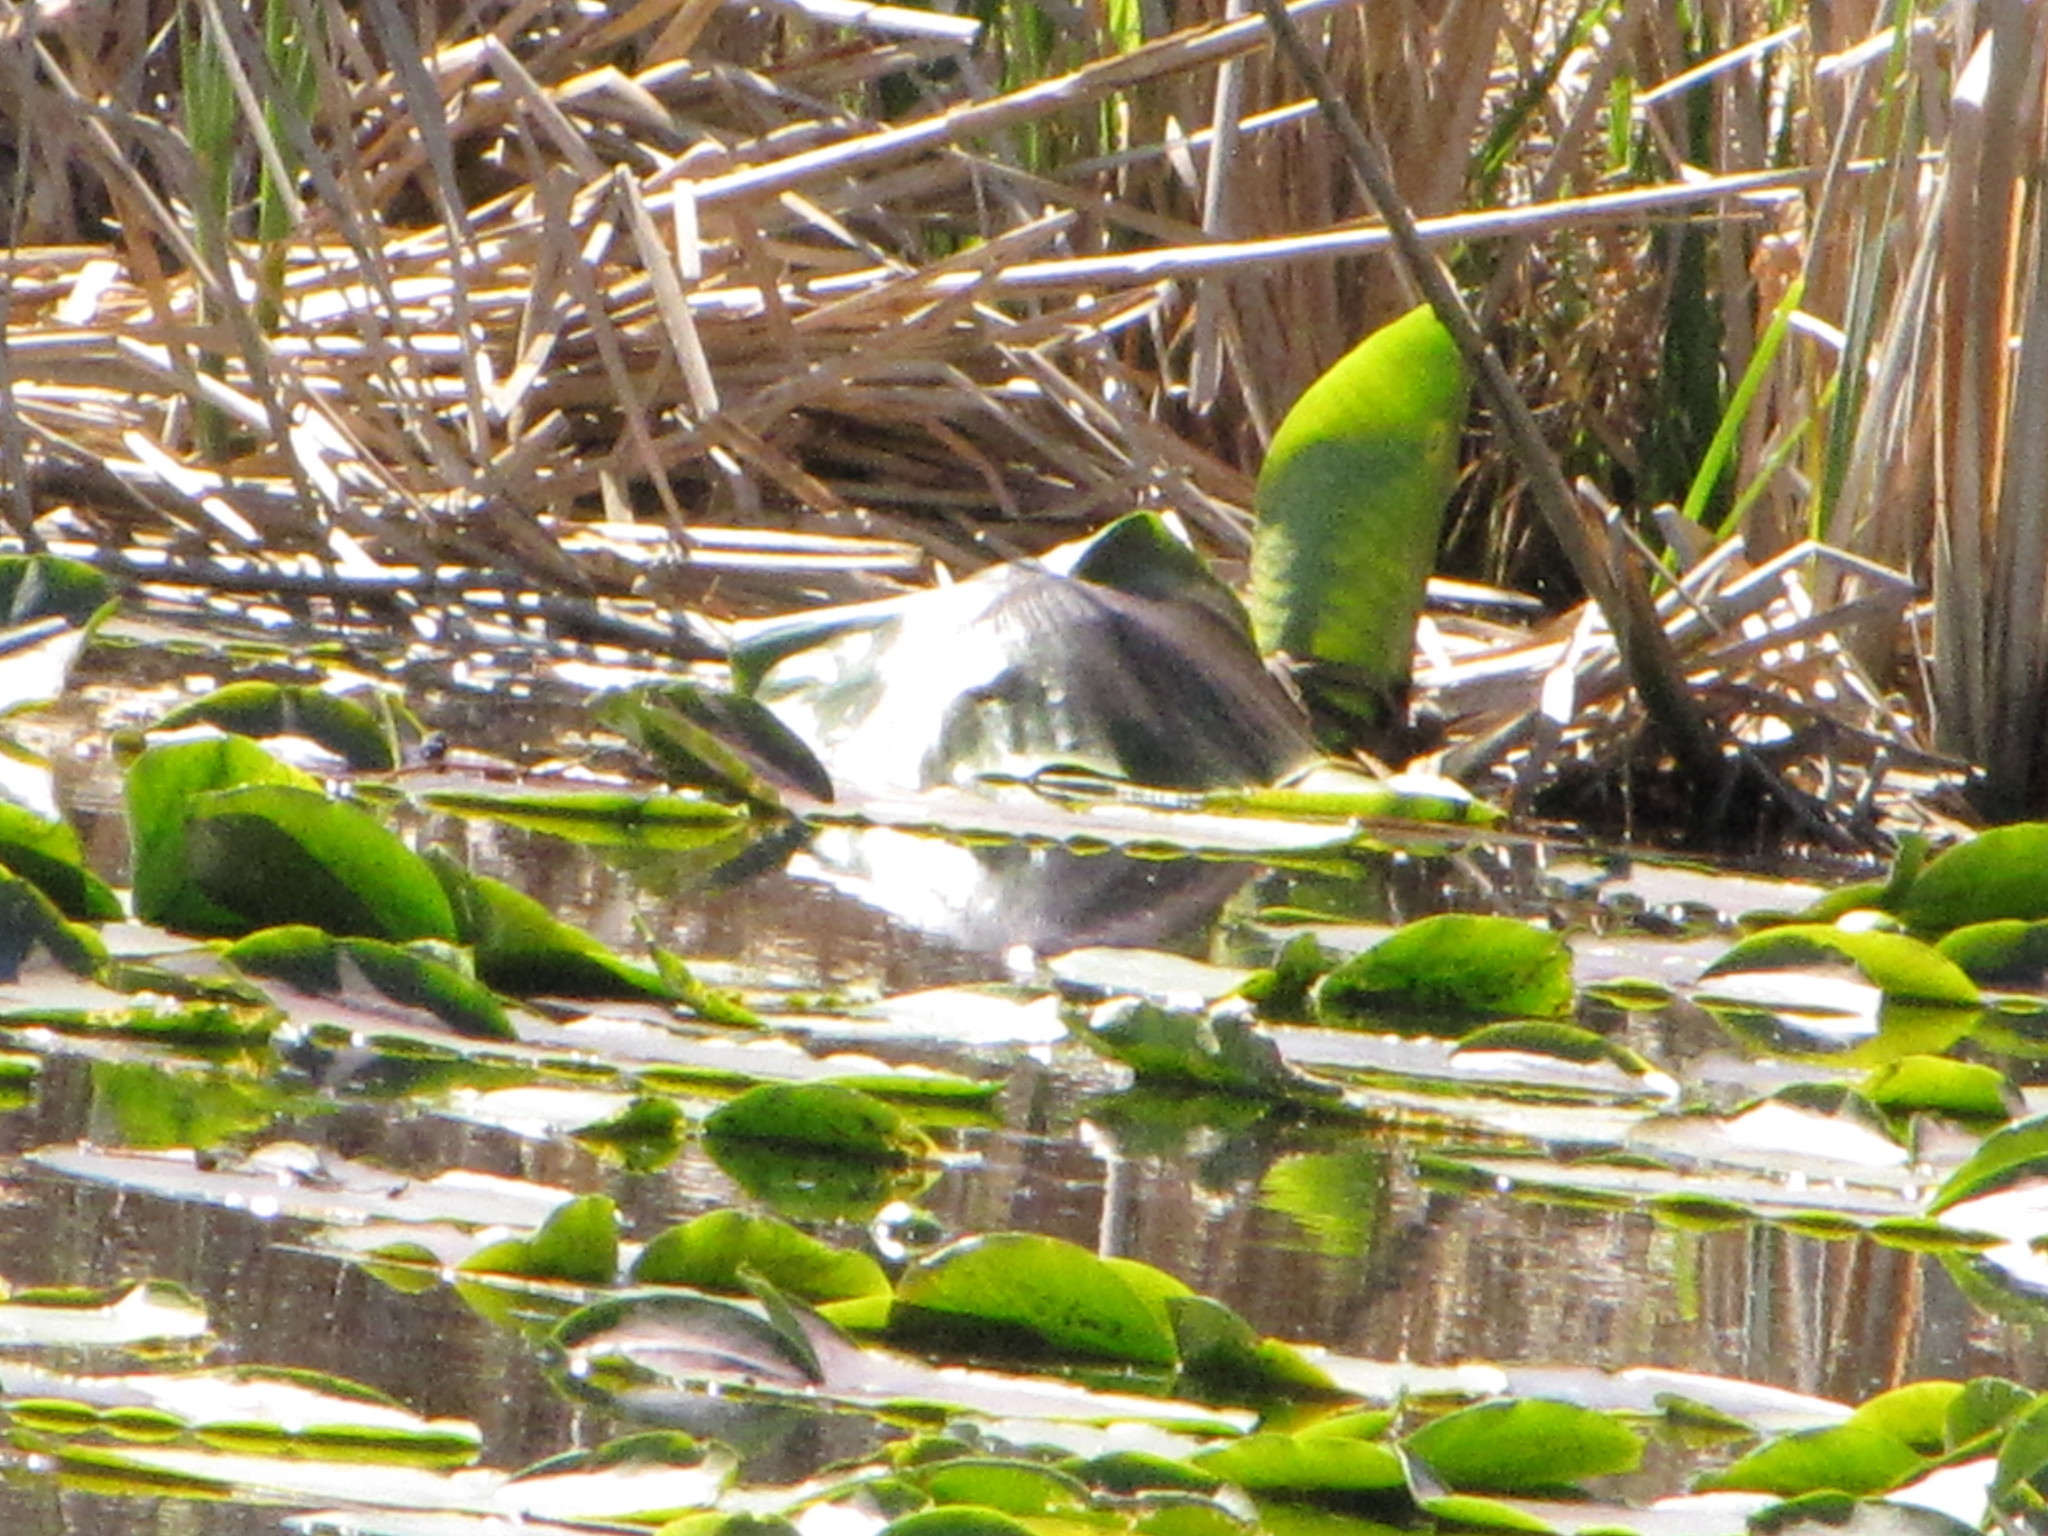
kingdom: Plantae
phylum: Tracheophyta
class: Magnoliopsida
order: Nymphaeales
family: Nymphaeaceae
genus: Nuphar
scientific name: Nuphar polysepala
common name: Rocky mountain cow-lily
